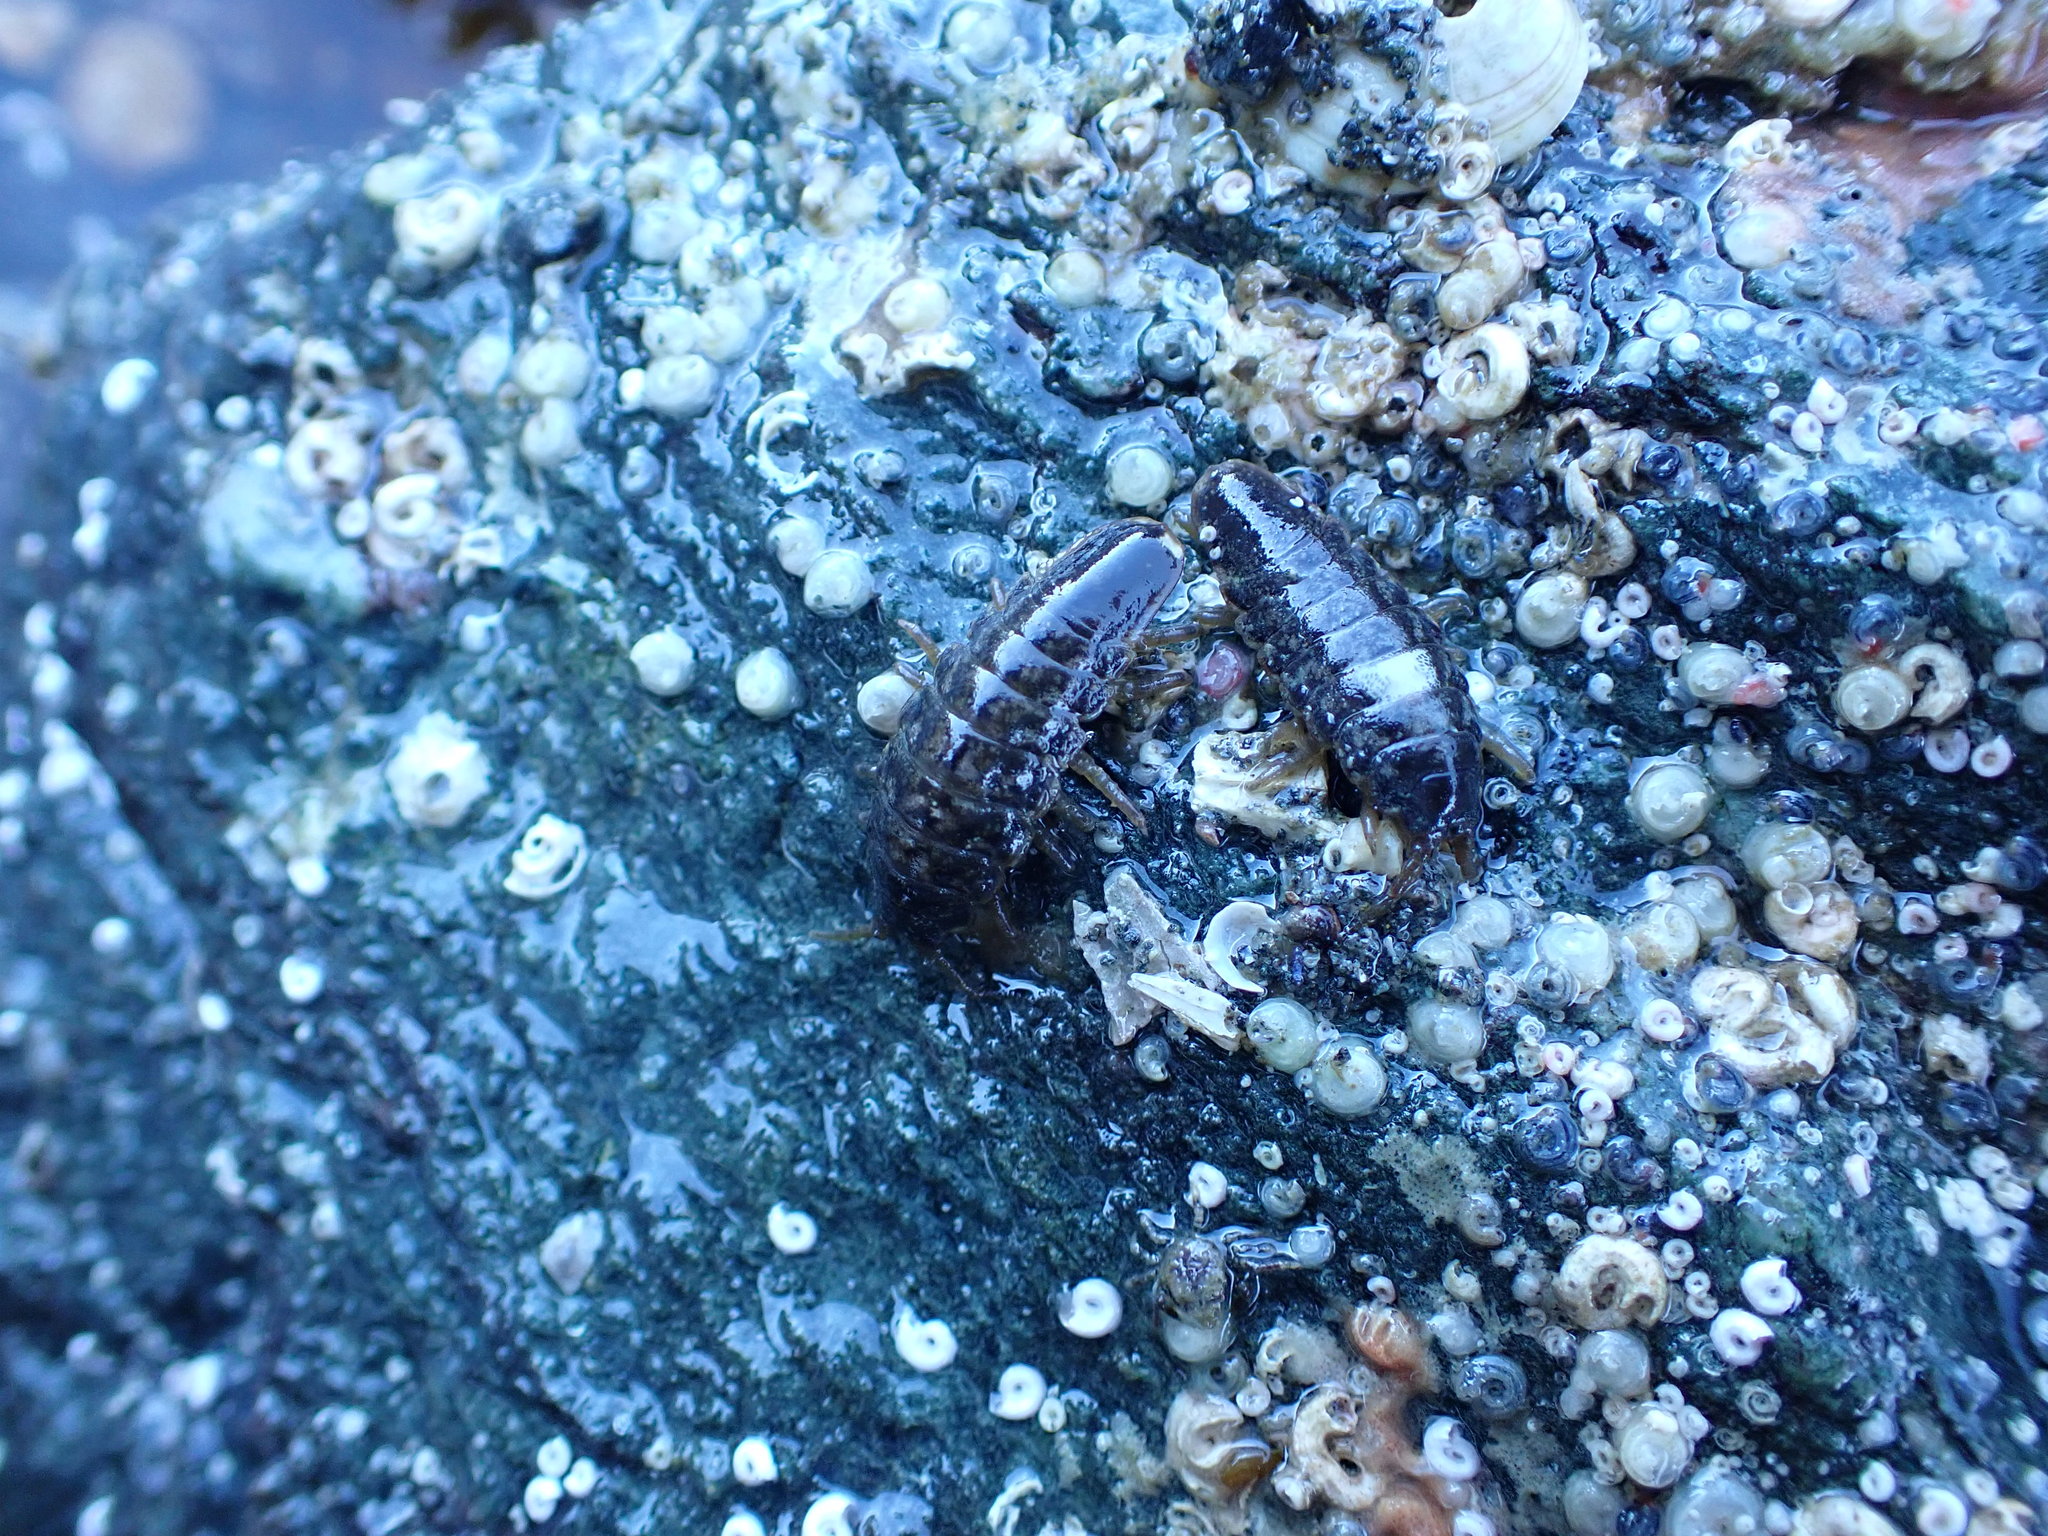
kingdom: Animalia
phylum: Arthropoda
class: Malacostraca
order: Isopoda
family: Idoteidae
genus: Pentidotea
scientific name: Pentidotea wosnesenskii
